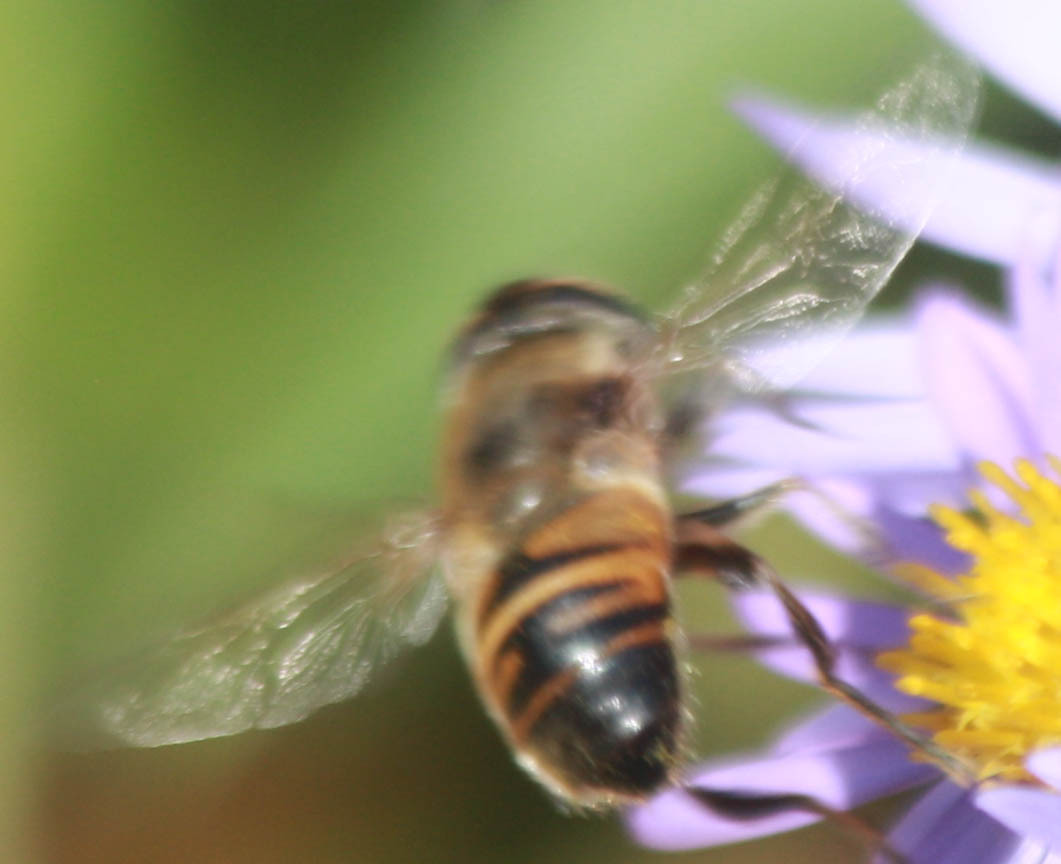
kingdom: Animalia
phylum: Arthropoda
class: Insecta
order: Diptera
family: Syrphidae
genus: Eristalis
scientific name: Eristalis tenax
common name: Drone fly
